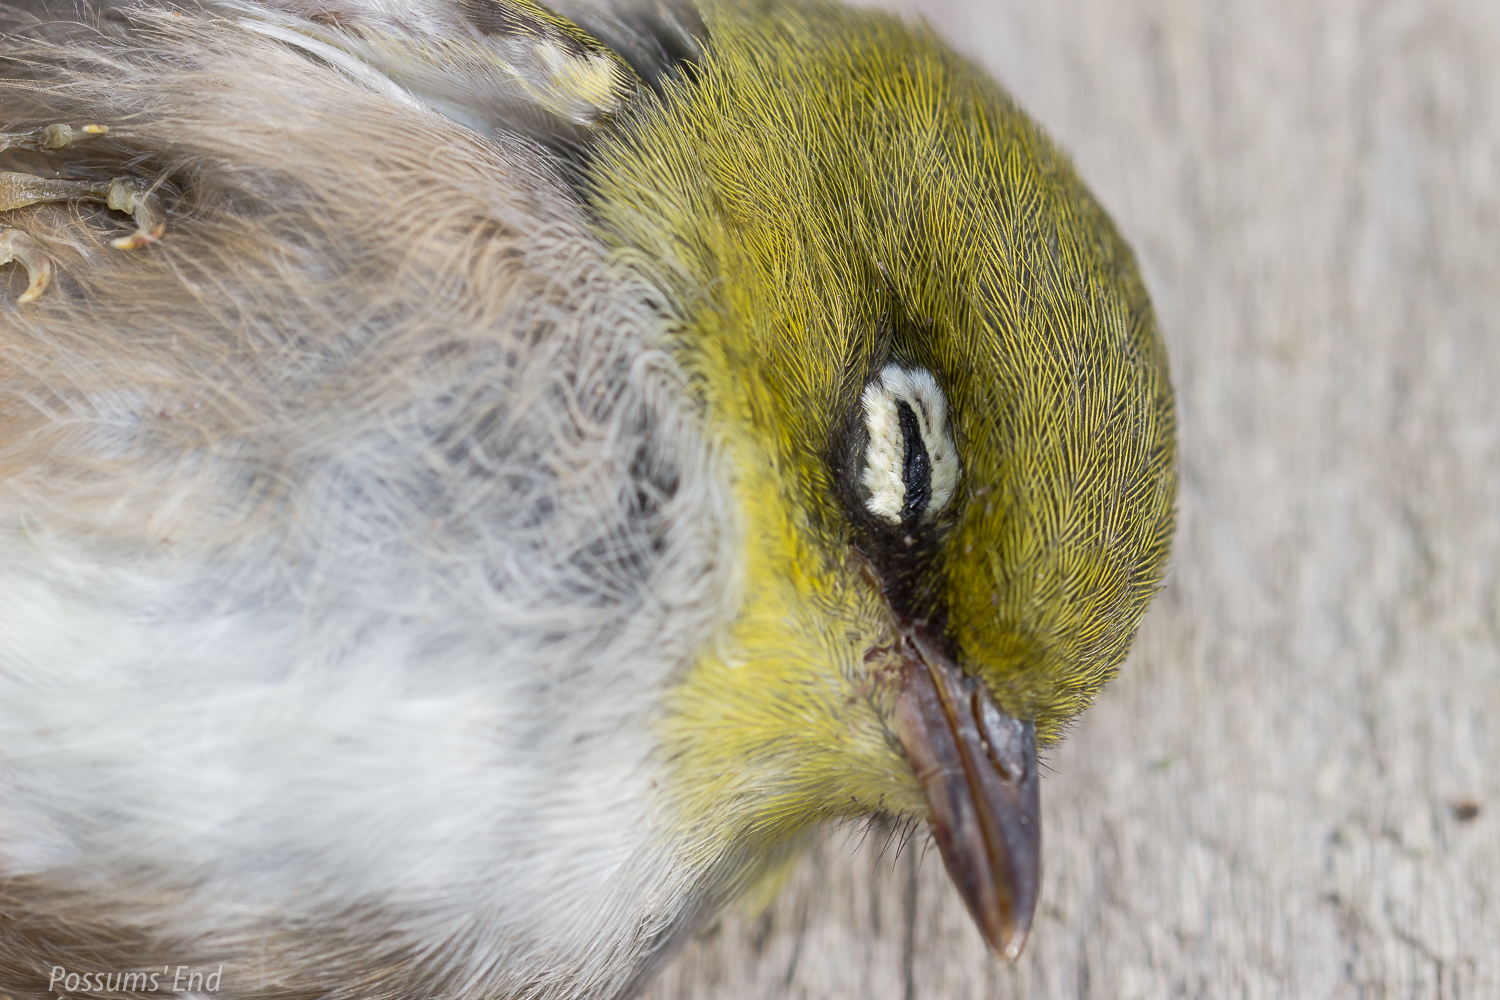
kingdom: Animalia
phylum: Chordata
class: Aves
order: Passeriformes
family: Zosteropidae
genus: Zosterops
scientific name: Zosterops lateralis
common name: Silvereye
